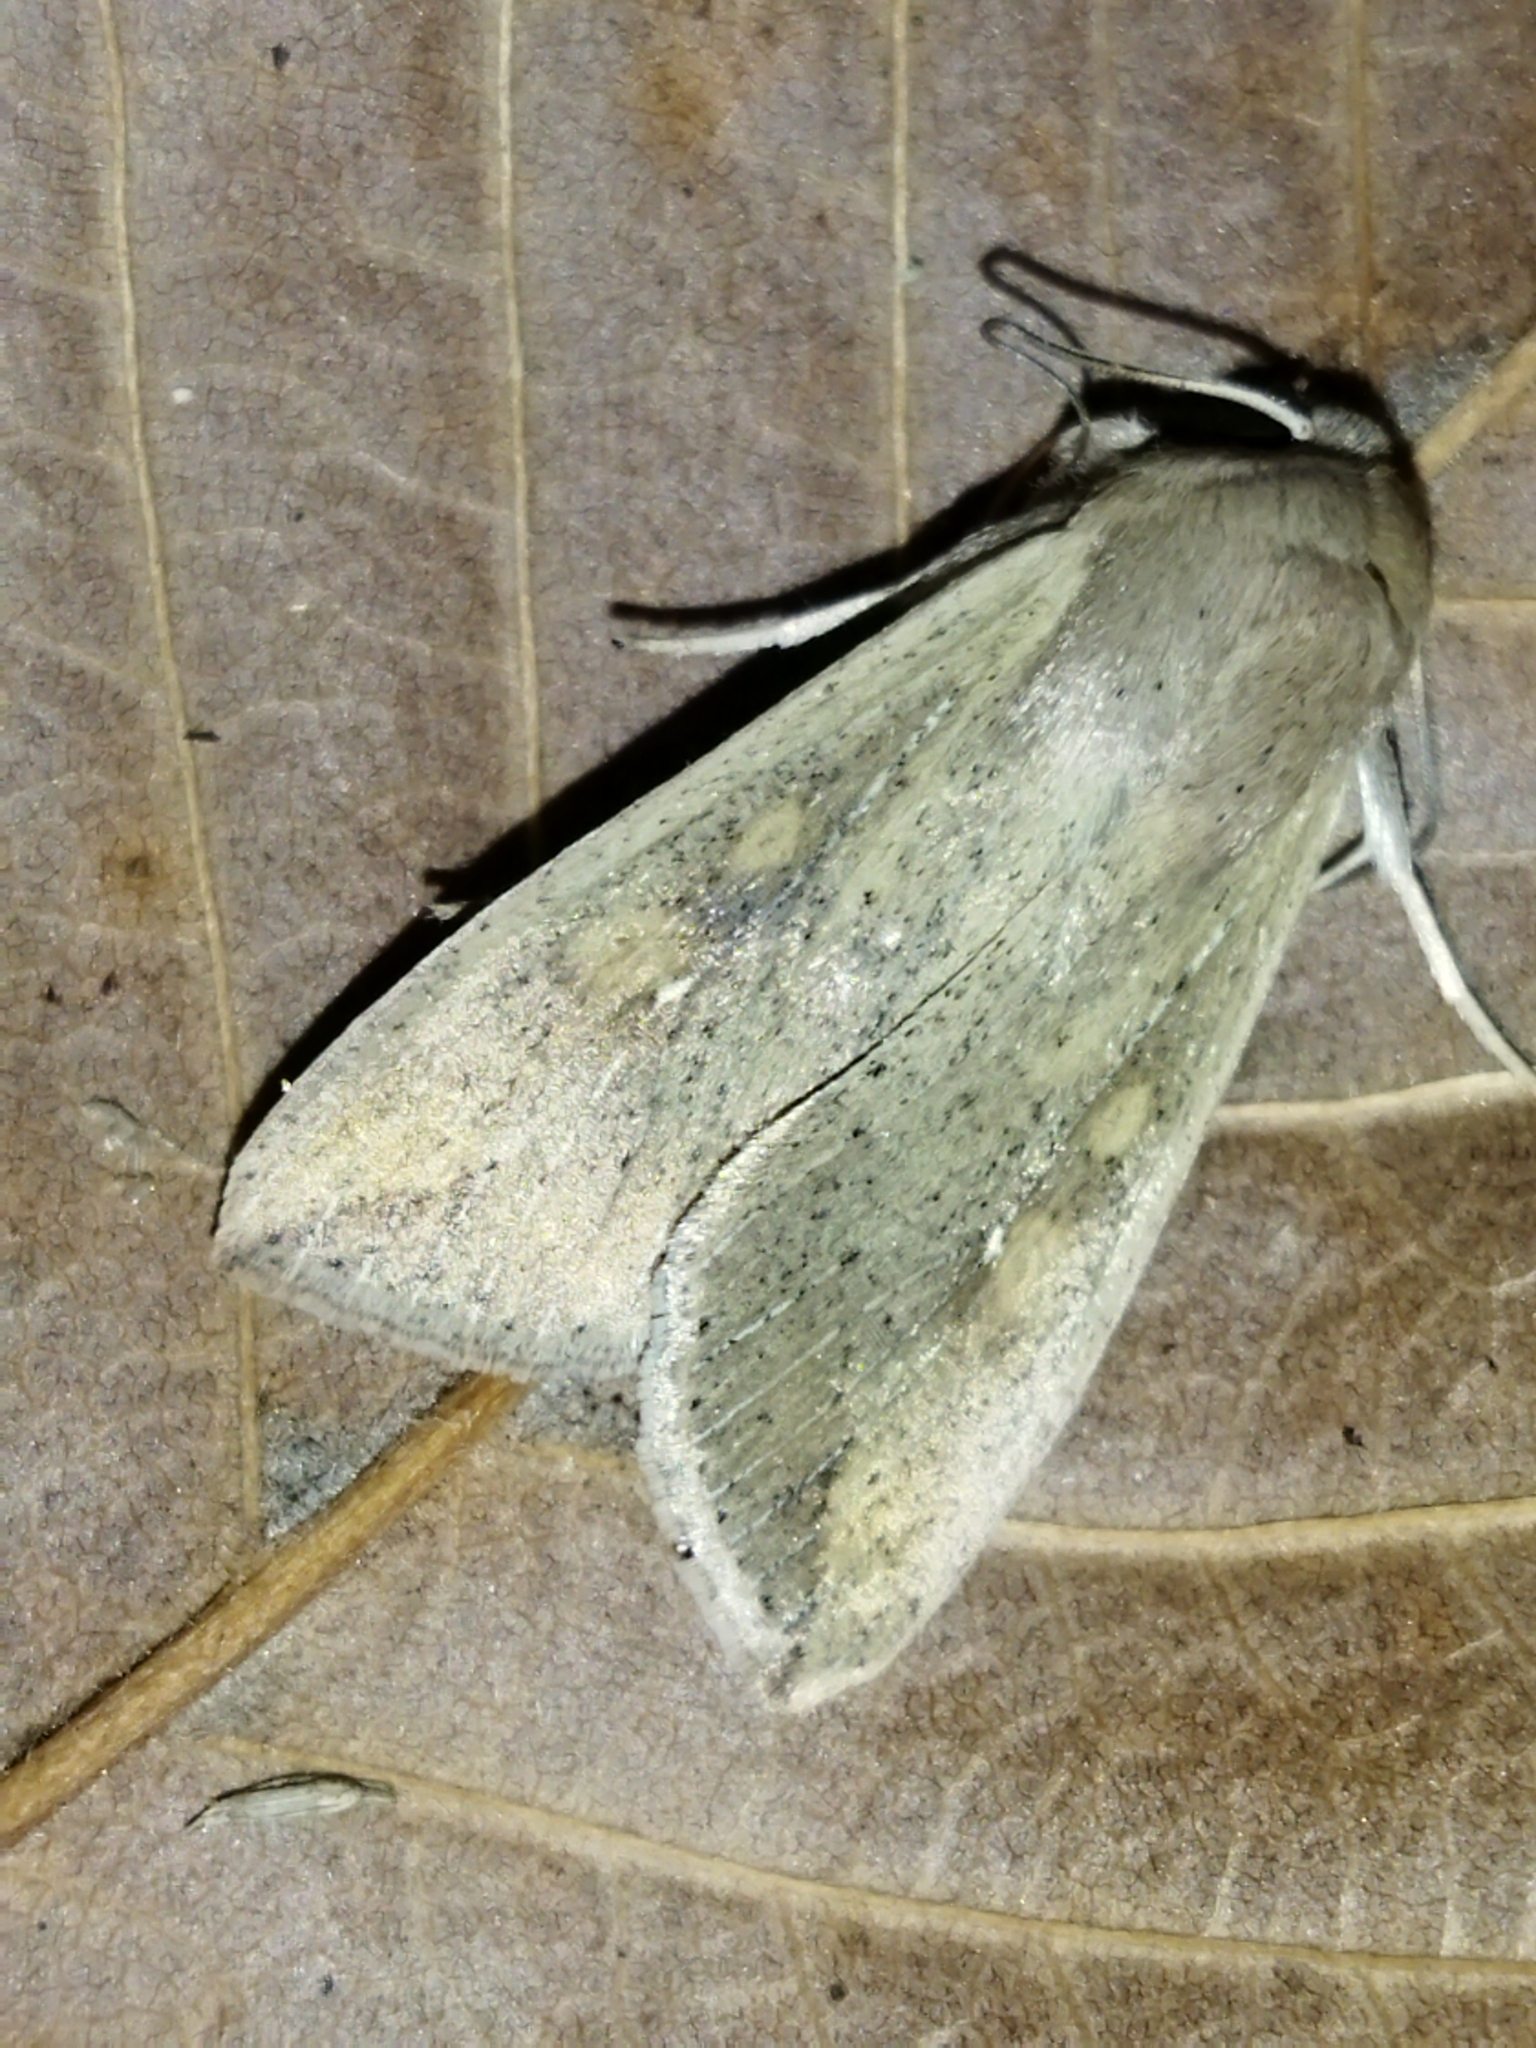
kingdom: Animalia
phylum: Arthropoda
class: Insecta
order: Lepidoptera
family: Noctuidae
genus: Mythimna
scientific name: Mythimna unipuncta
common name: White-speck
